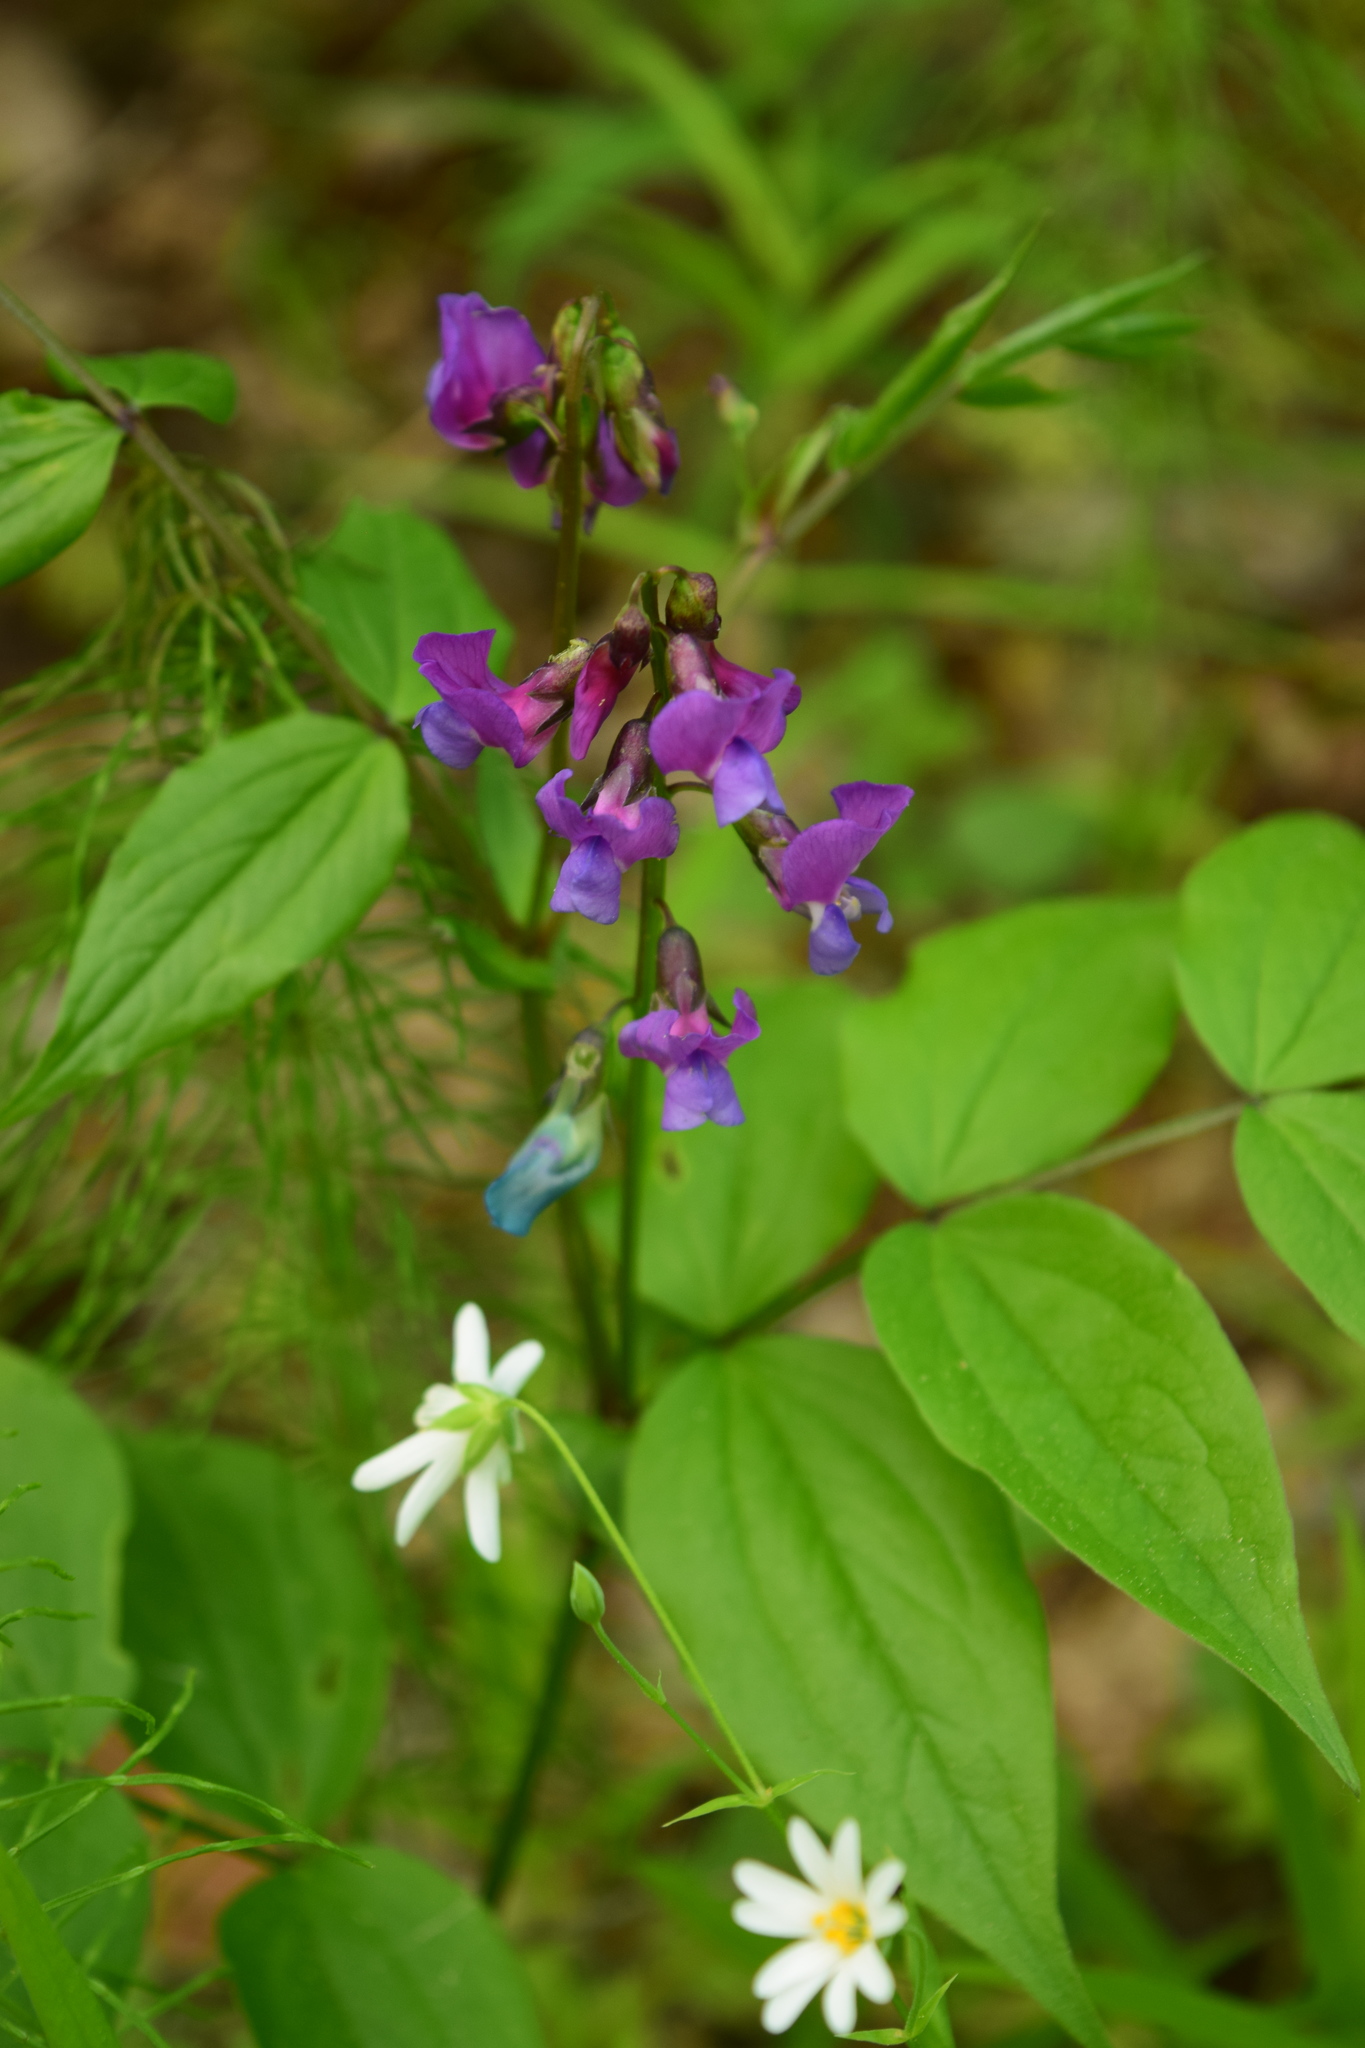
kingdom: Plantae
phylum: Tracheophyta
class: Magnoliopsida
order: Fabales
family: Fabaceae
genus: Lathyrus
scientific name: Lathyrus vernus
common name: Spring pea
